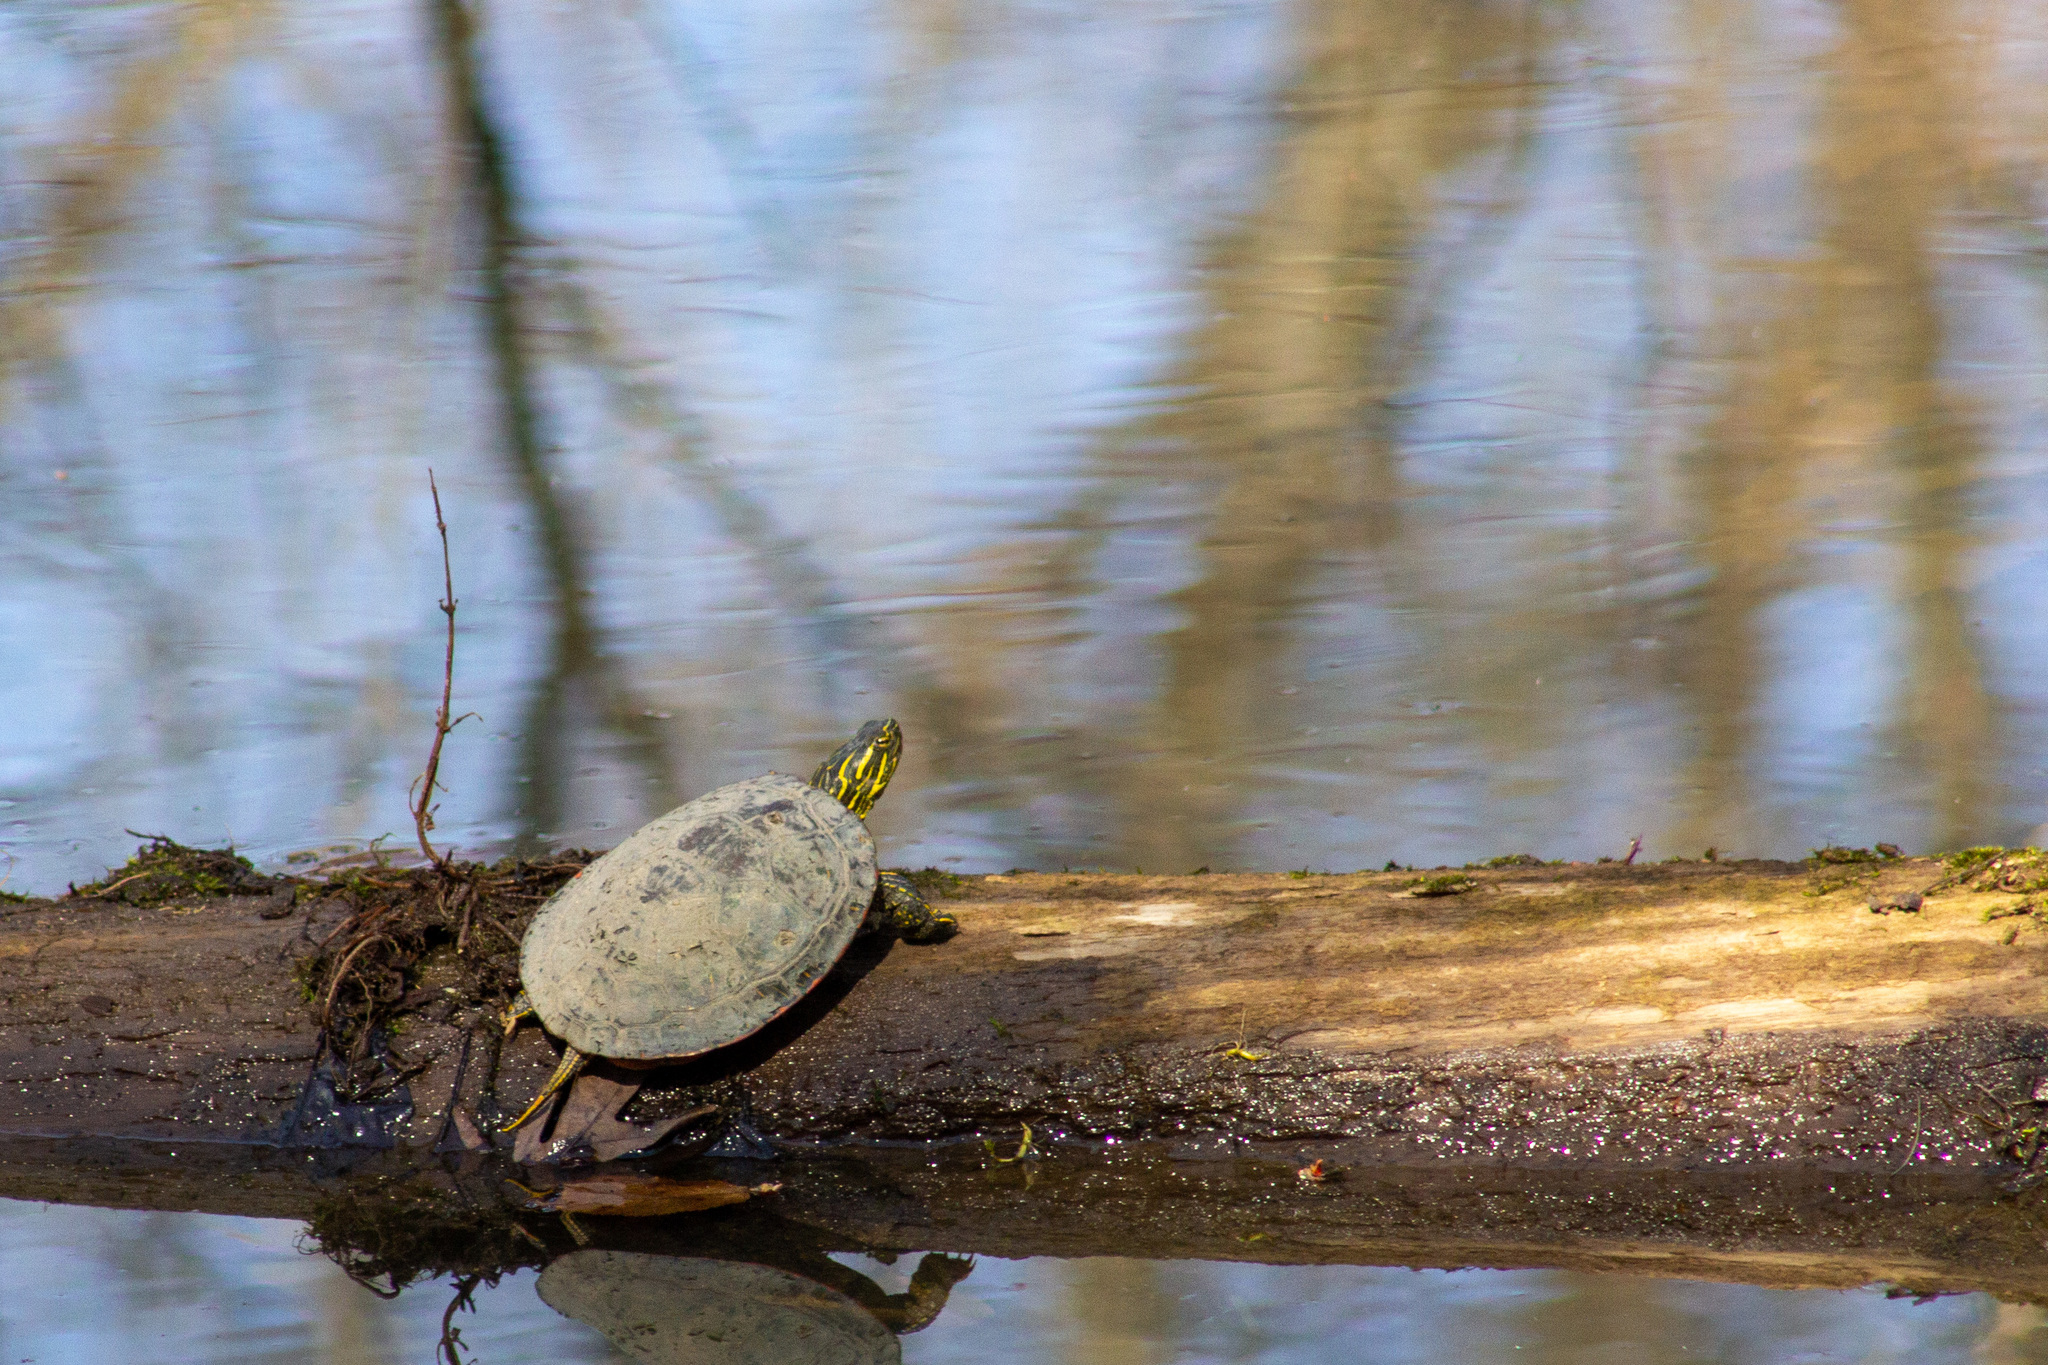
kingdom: Animalia
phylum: Chordata
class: Testudines
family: Emydidae
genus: Chrysemys
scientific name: Chrysemys picta
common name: Painted turtle
